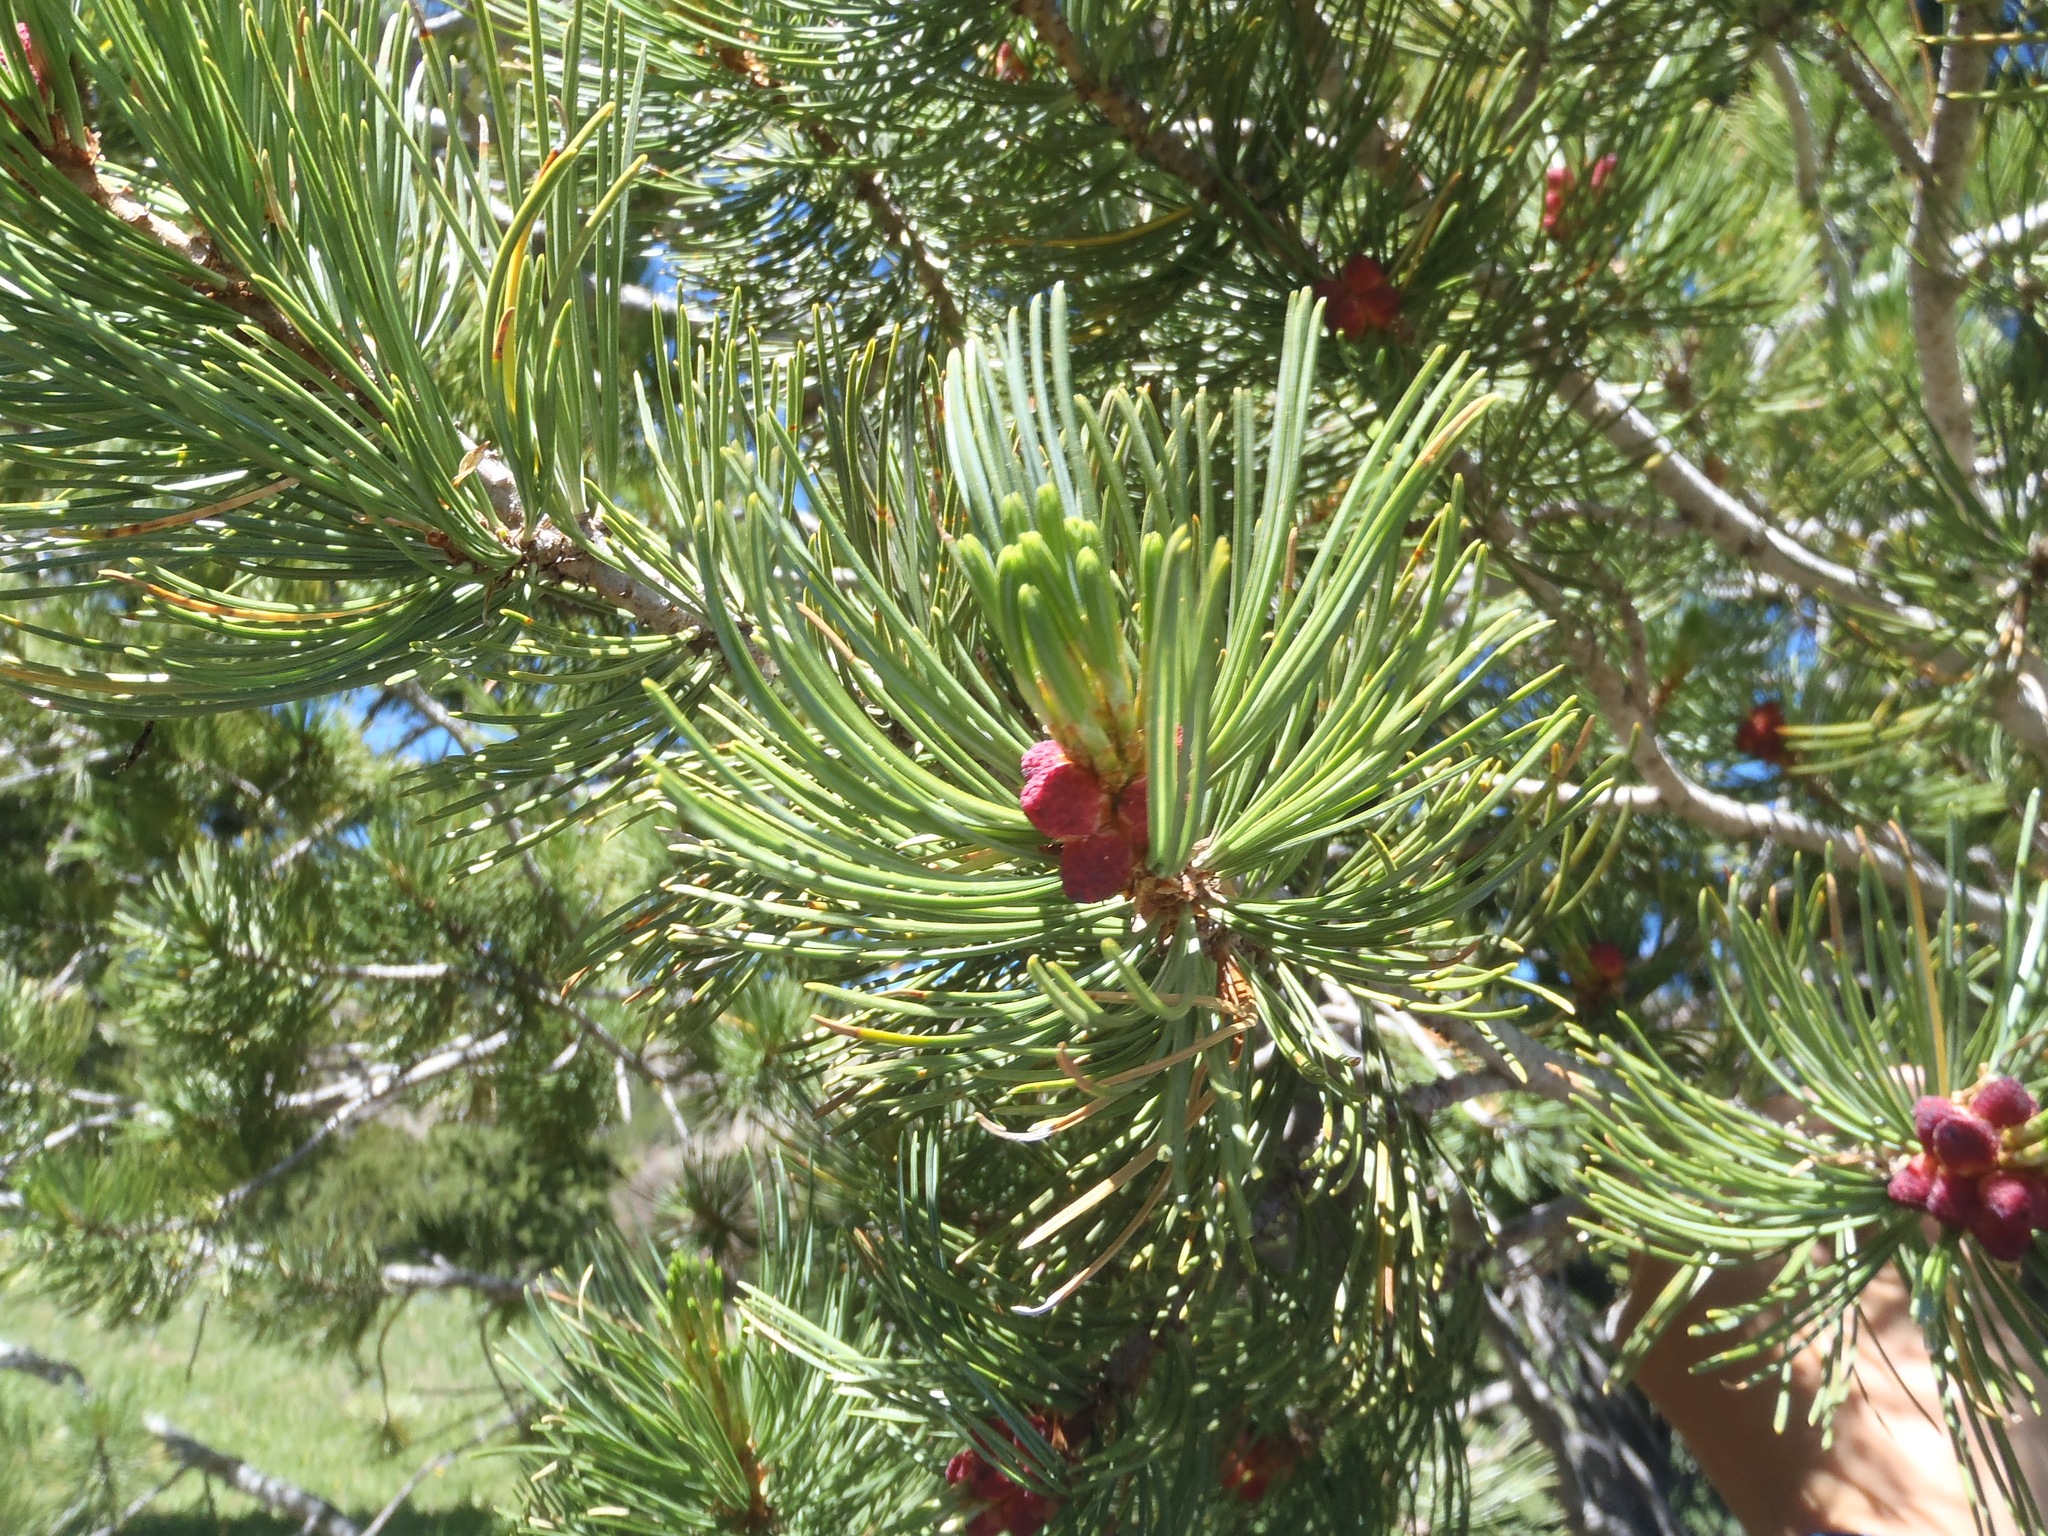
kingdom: Plantae
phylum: Tracheophyta
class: Pinopsida
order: Pinales
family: Pinaceae
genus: Pinus
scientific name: Pinus albicaulis
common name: Whitebark pine
